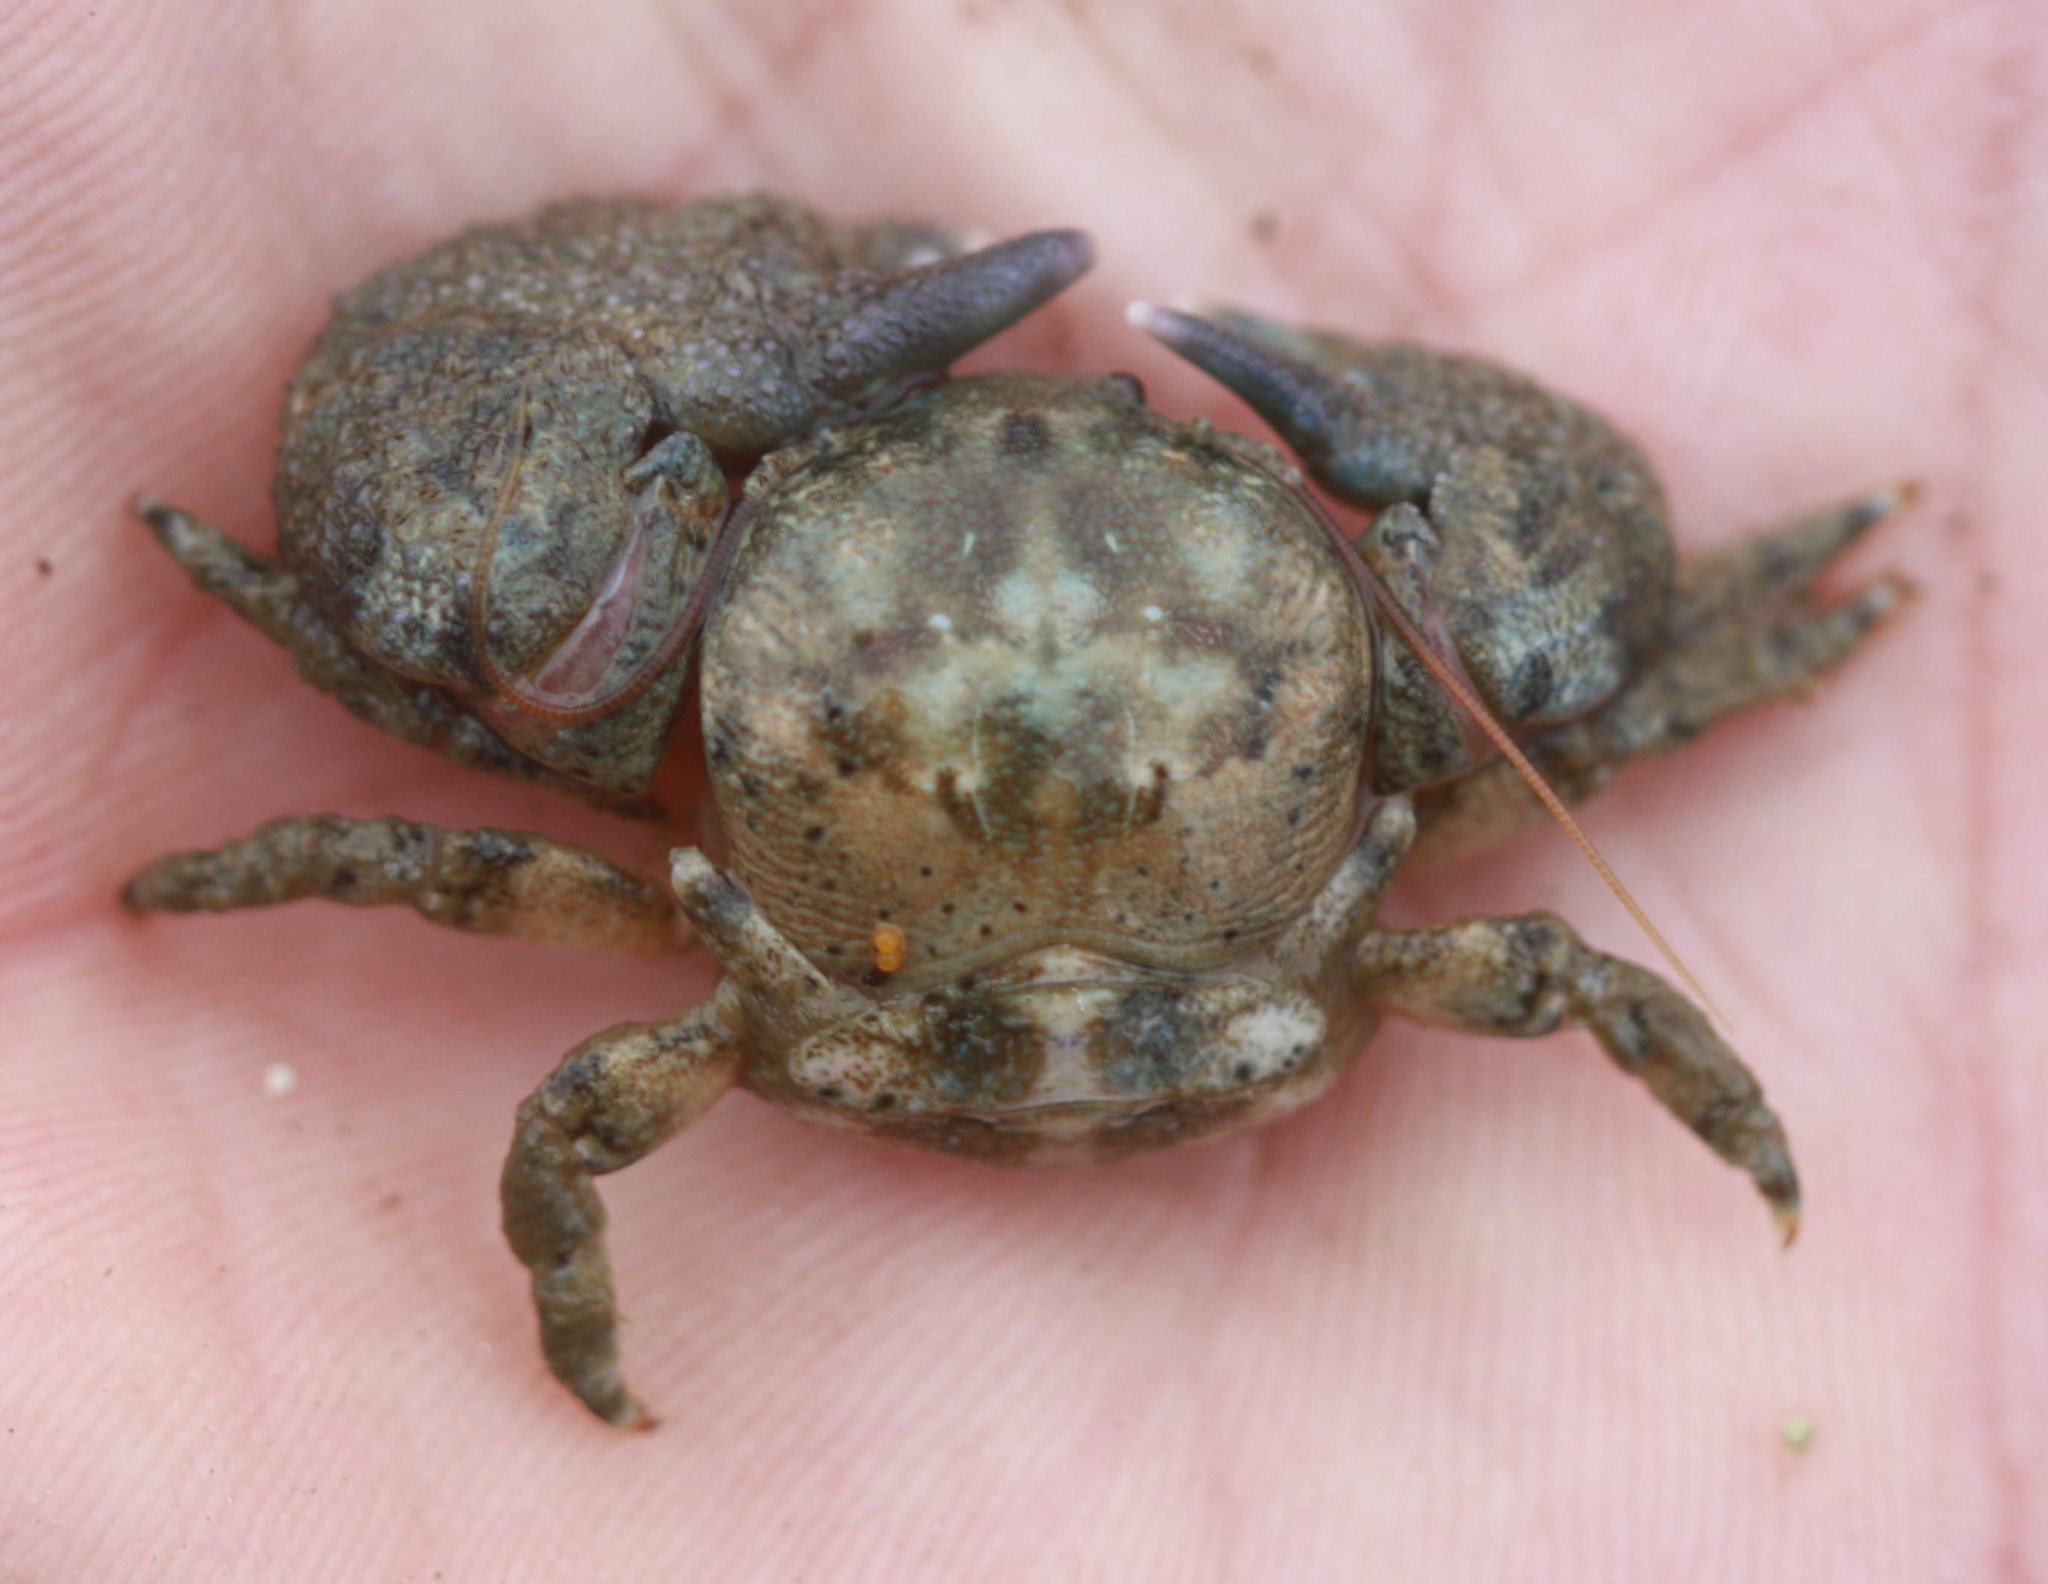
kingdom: Animalia
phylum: Arthropoda
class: Malacostraca
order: Decapoda
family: Porcellanidae
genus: Pachycheles
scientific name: Pachycheles rudis
